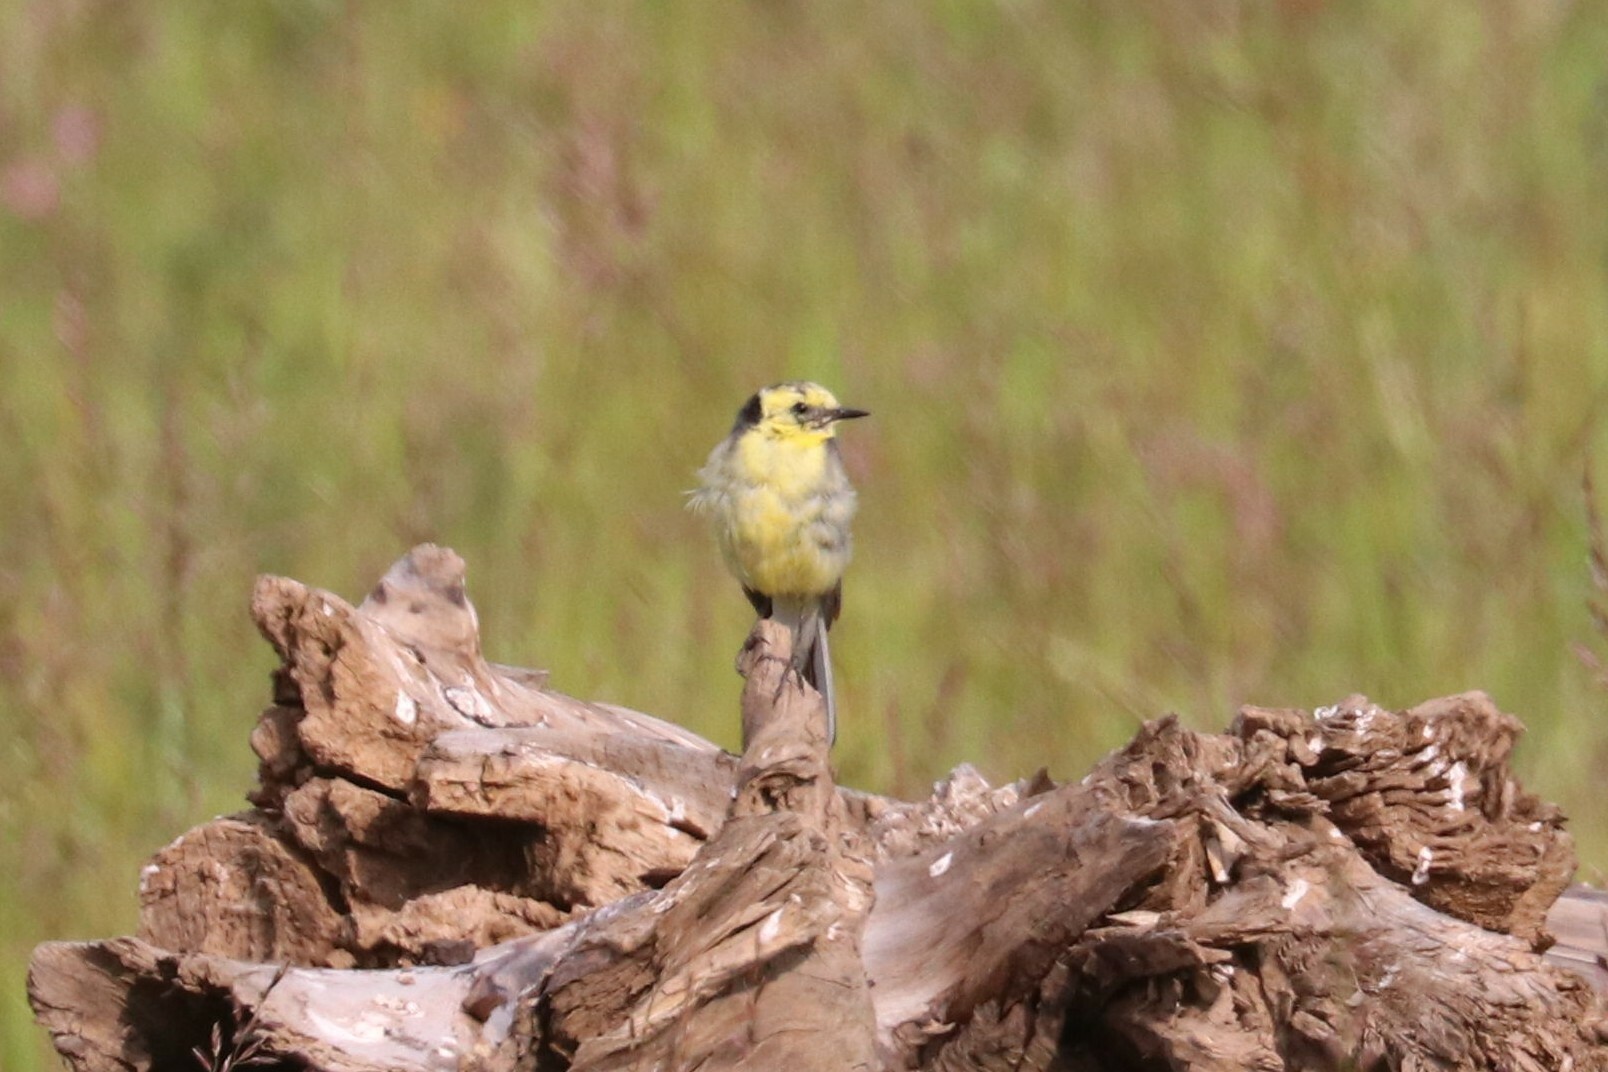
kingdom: Animalia
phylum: Chordata
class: Aves
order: Passeriformes
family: Motacillidae
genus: Motacilla
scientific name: Motacilla citreola
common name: Citrine wagtail
